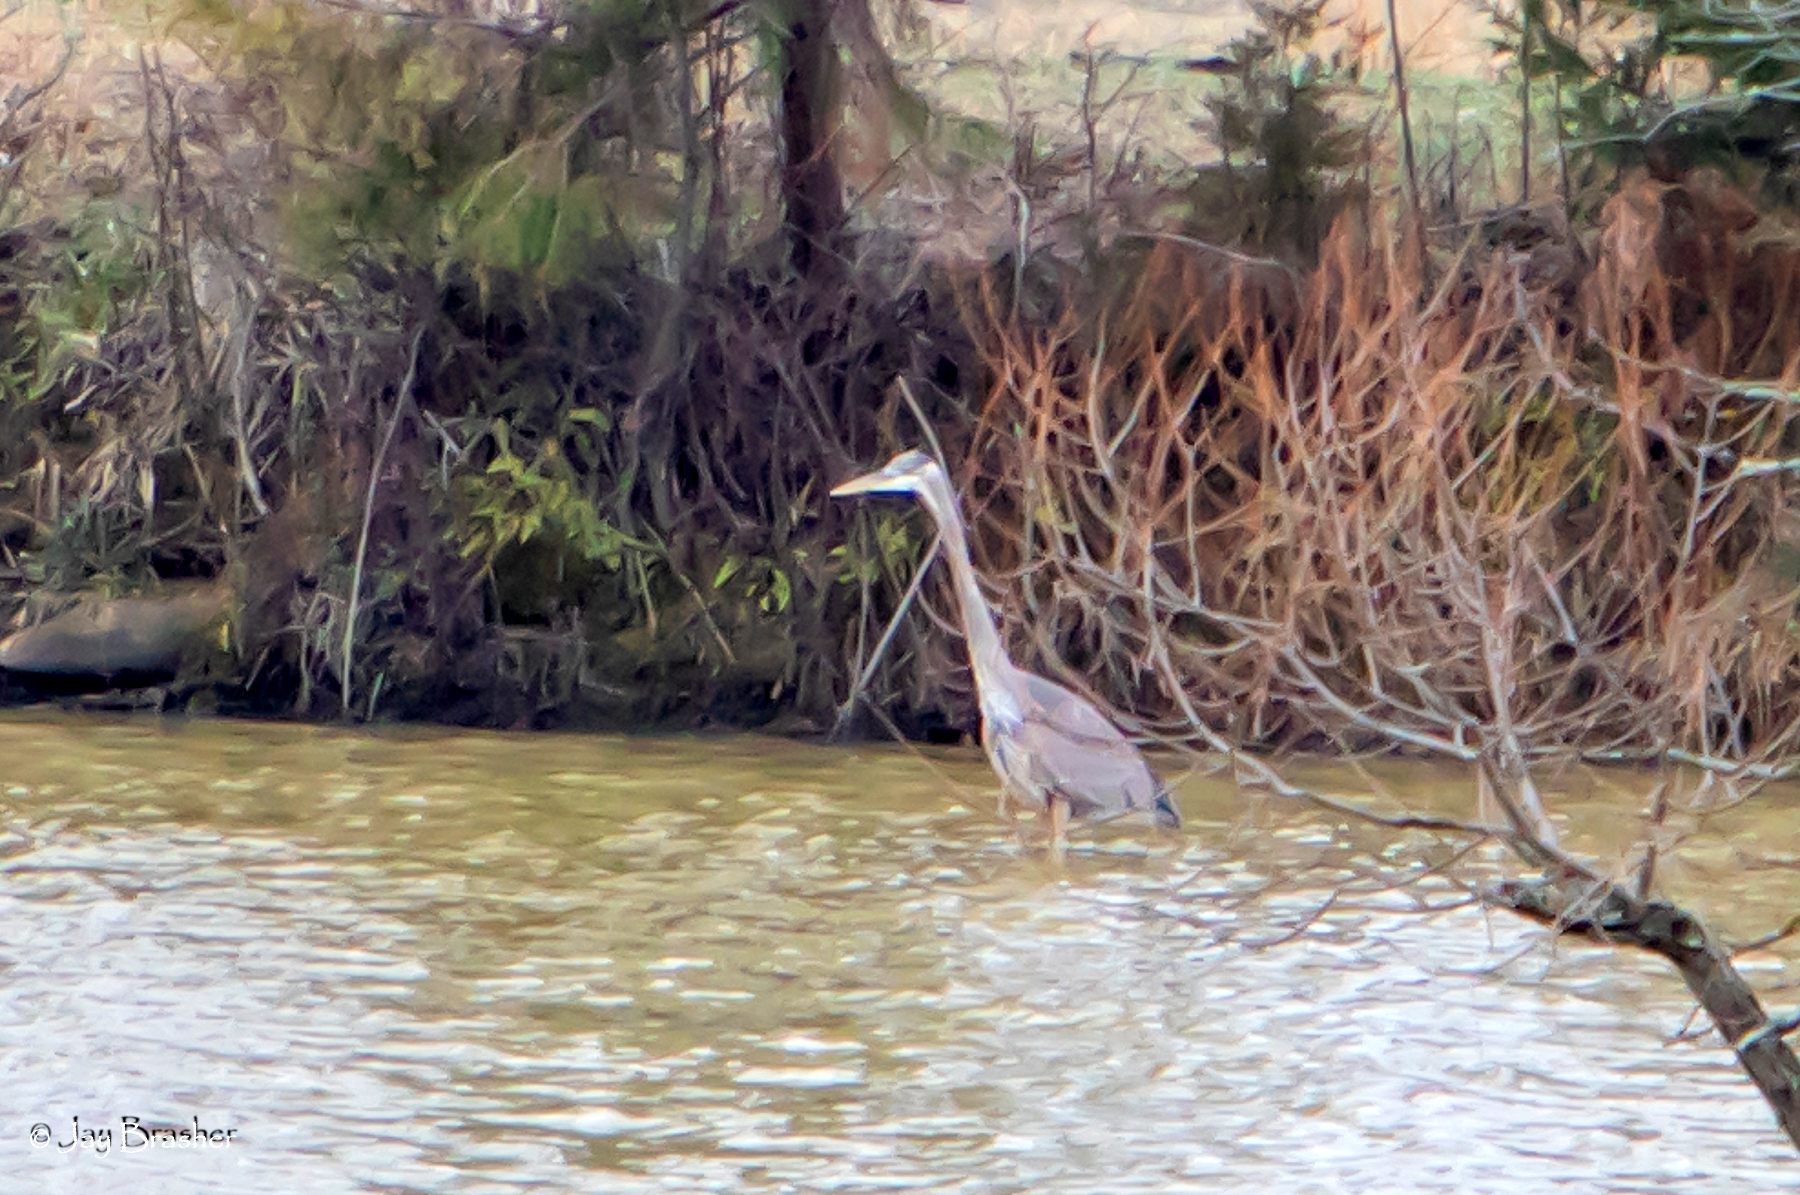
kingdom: Animalia
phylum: Chordata
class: Aves
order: Pelecaniformes
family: Ardeidae
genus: Ardea
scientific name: Ardea herodias
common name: Great blue heron
